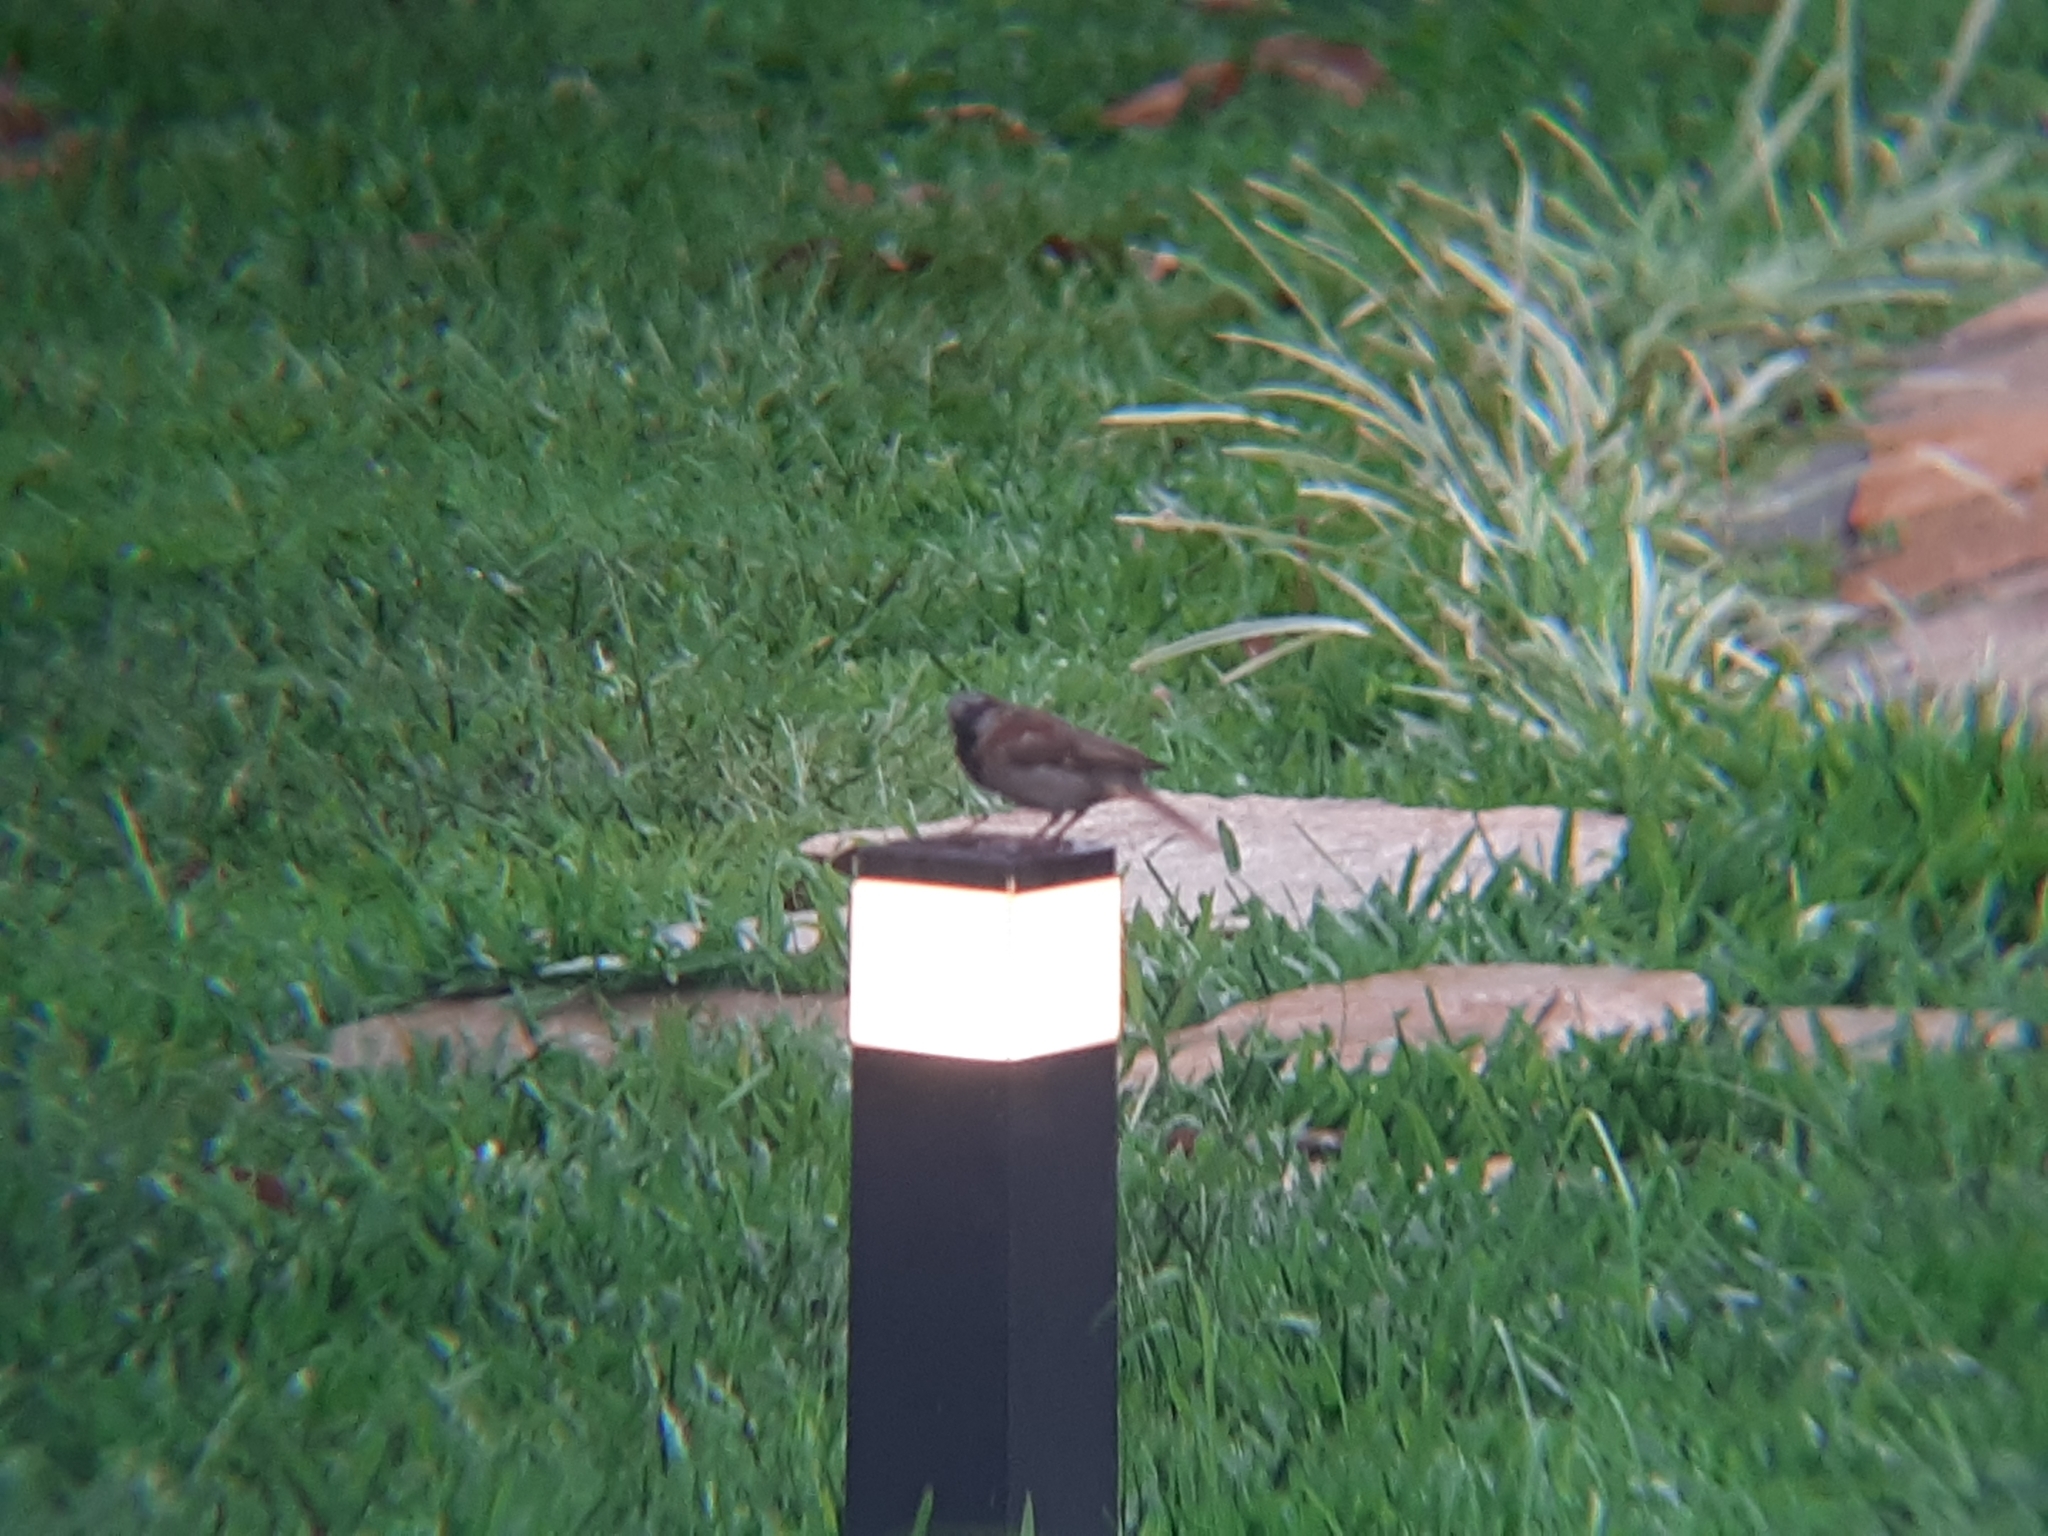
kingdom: Animalia
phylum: Chordata
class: Aves
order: Passeriformes
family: Passeridae
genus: Passer
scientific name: Passer domesticus
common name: House sparrow
